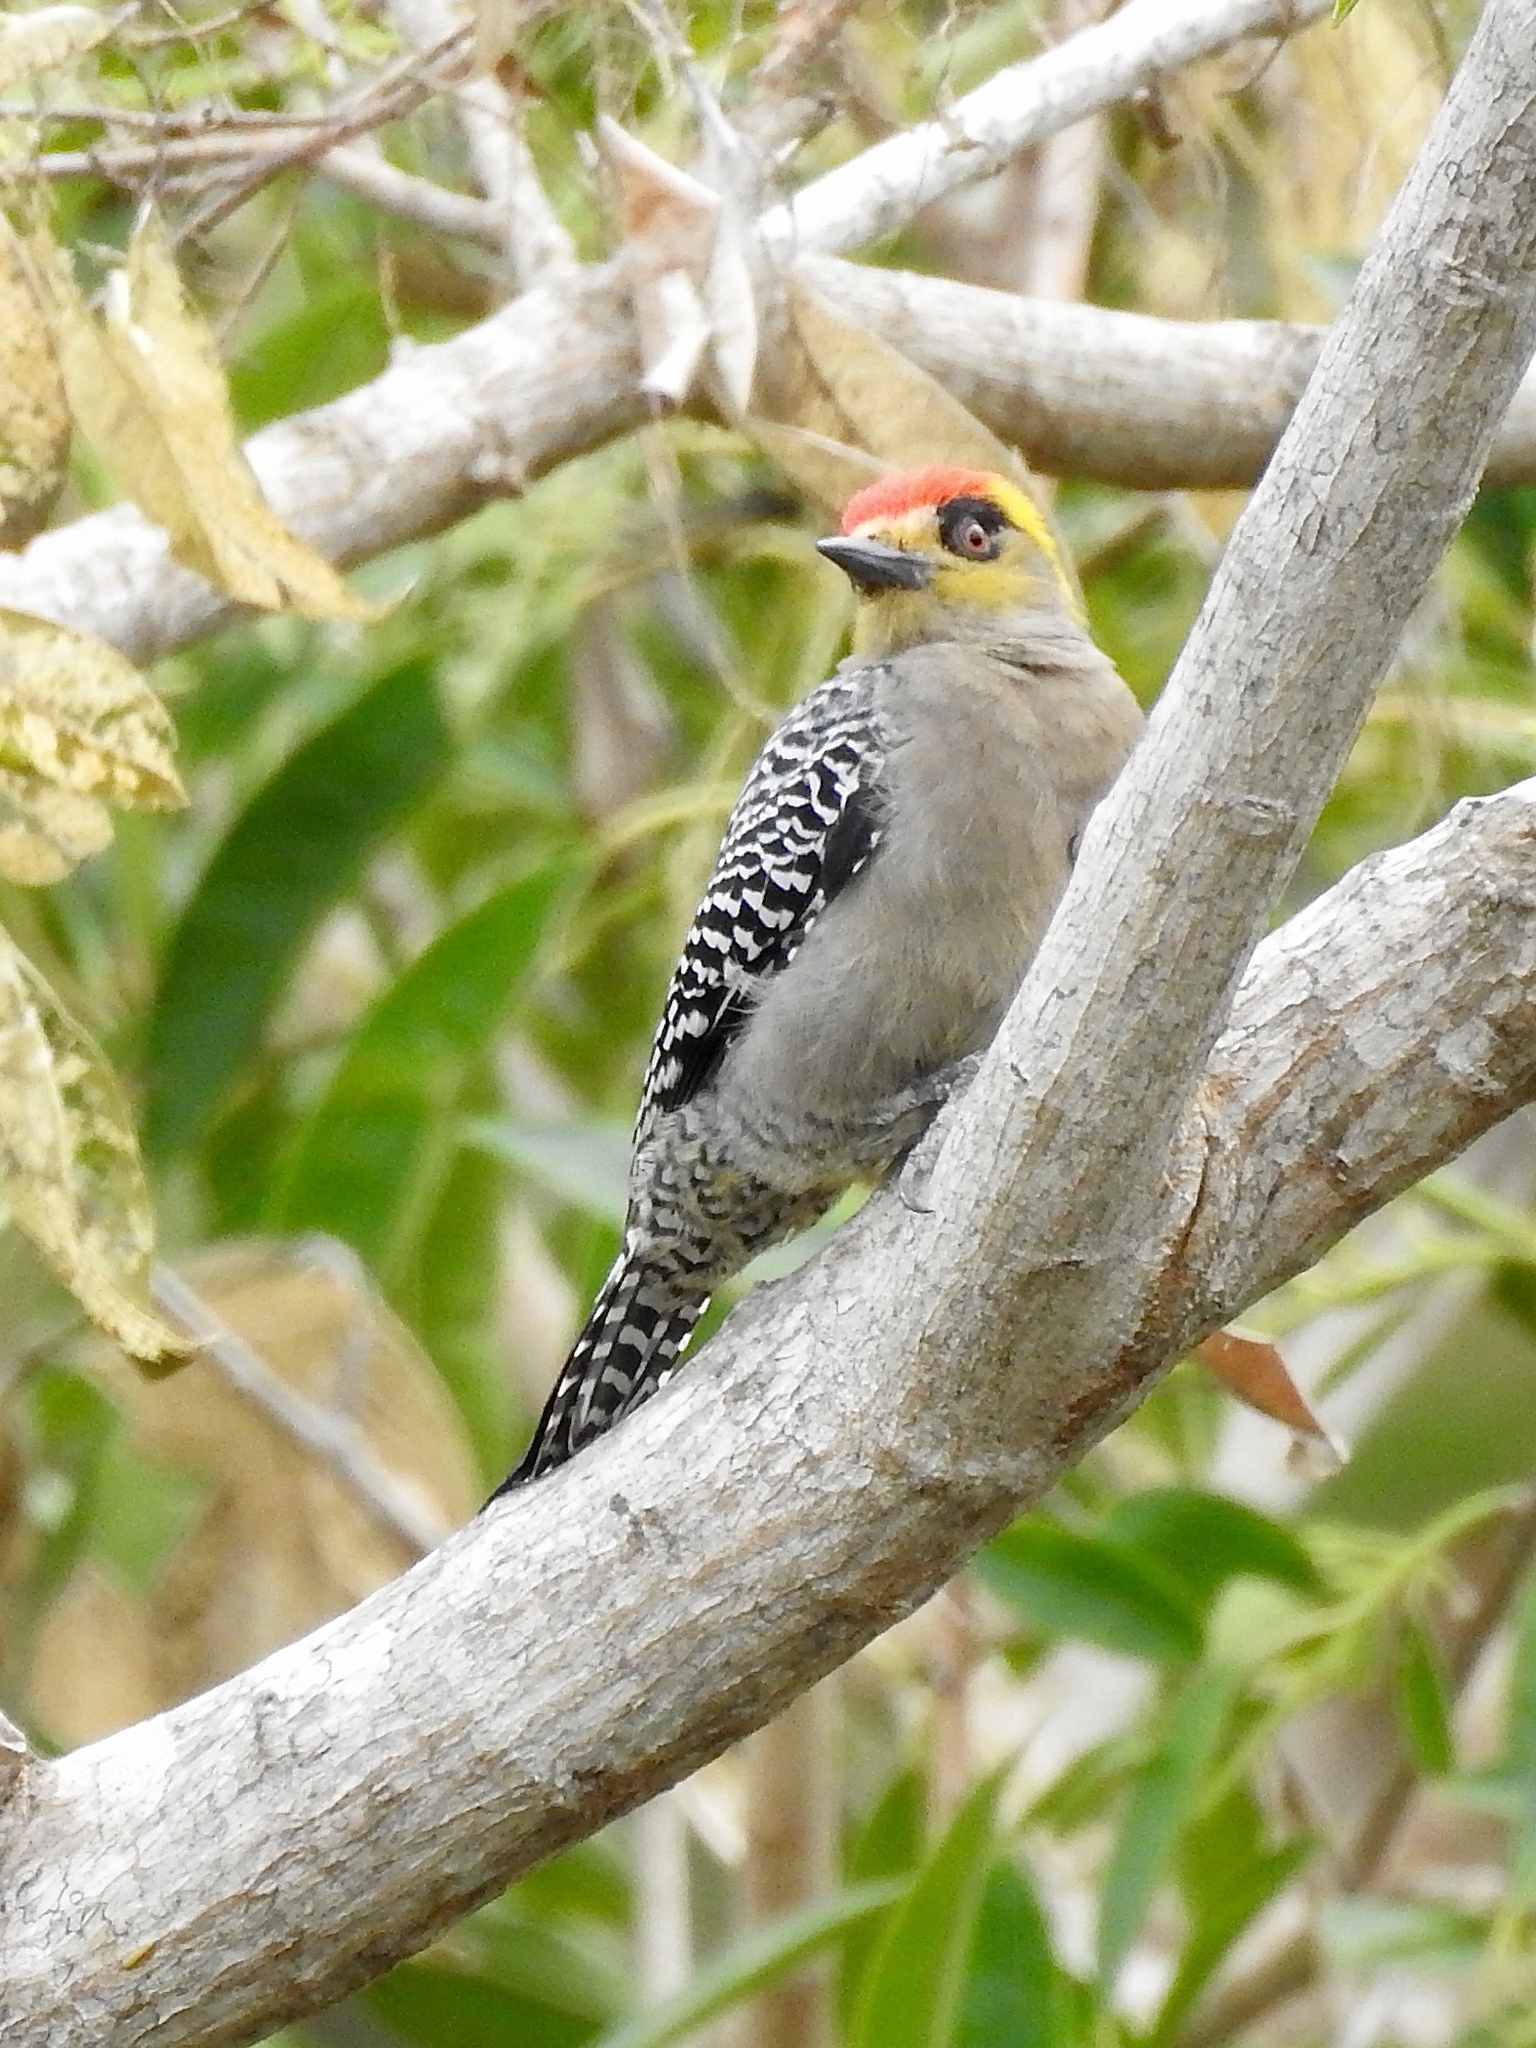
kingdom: Animalia
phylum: Chordata
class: Aves
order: Piciformes
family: Picidae
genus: Melanerpes
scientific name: Melanerpes chrysogenys
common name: Golden-cheeked woodpecker
